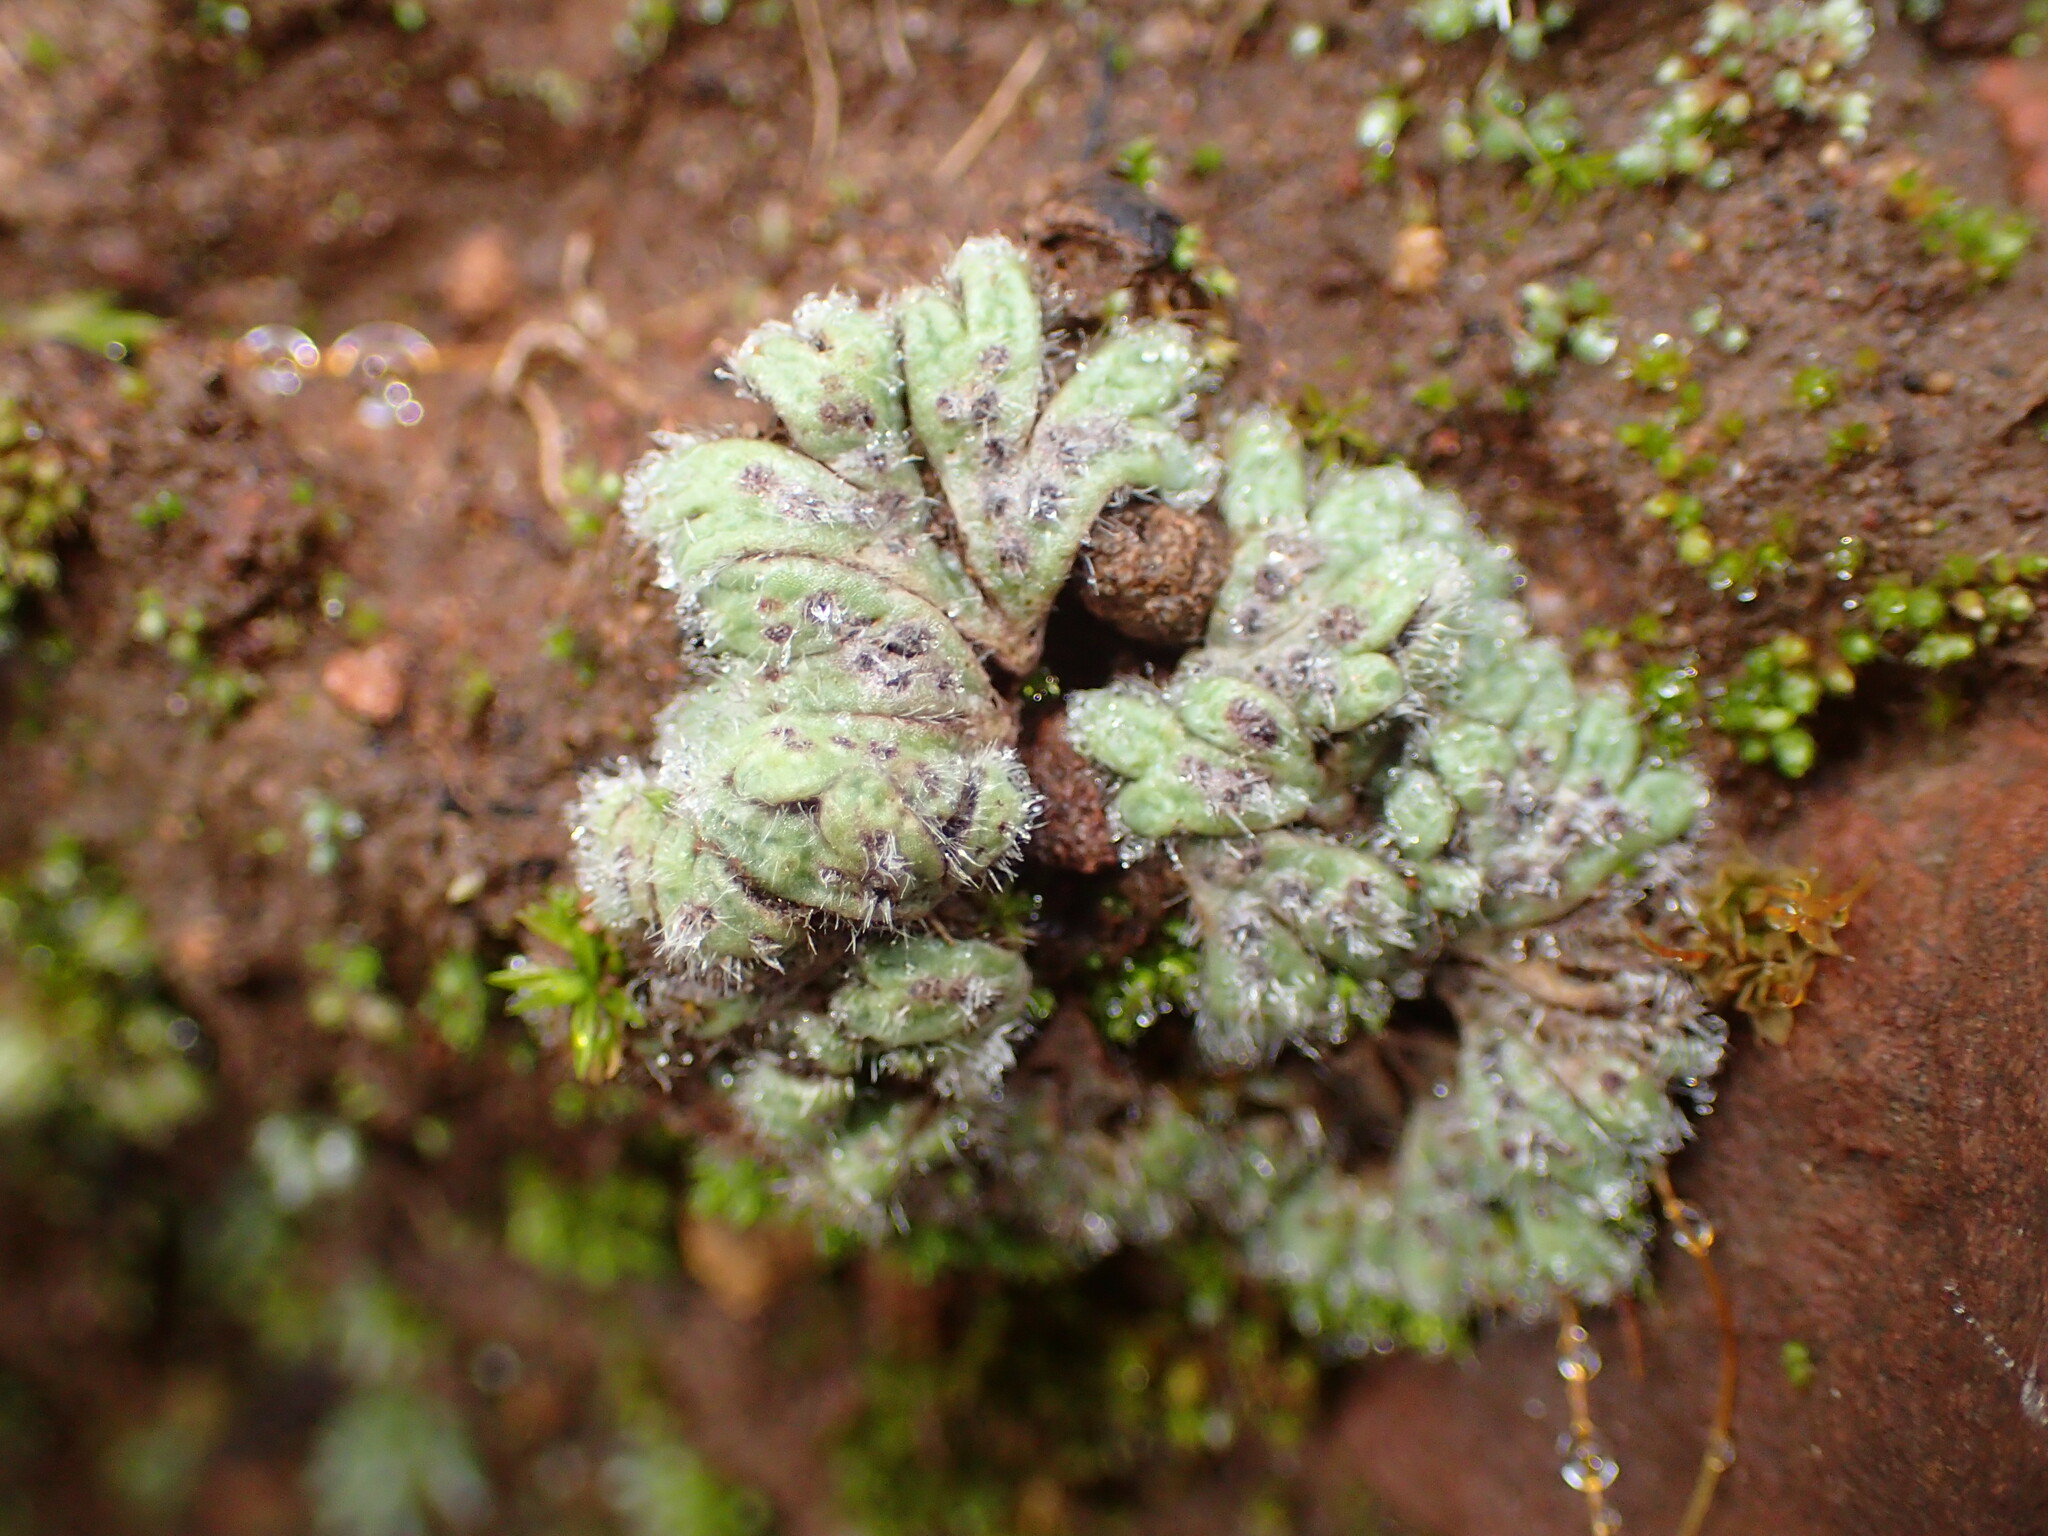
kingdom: Plantae
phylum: Marchantiophyta
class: Marchantiopsida
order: Marchantiales
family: Ricciaceae
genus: Riccia
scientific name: Riccia trichocarpa
